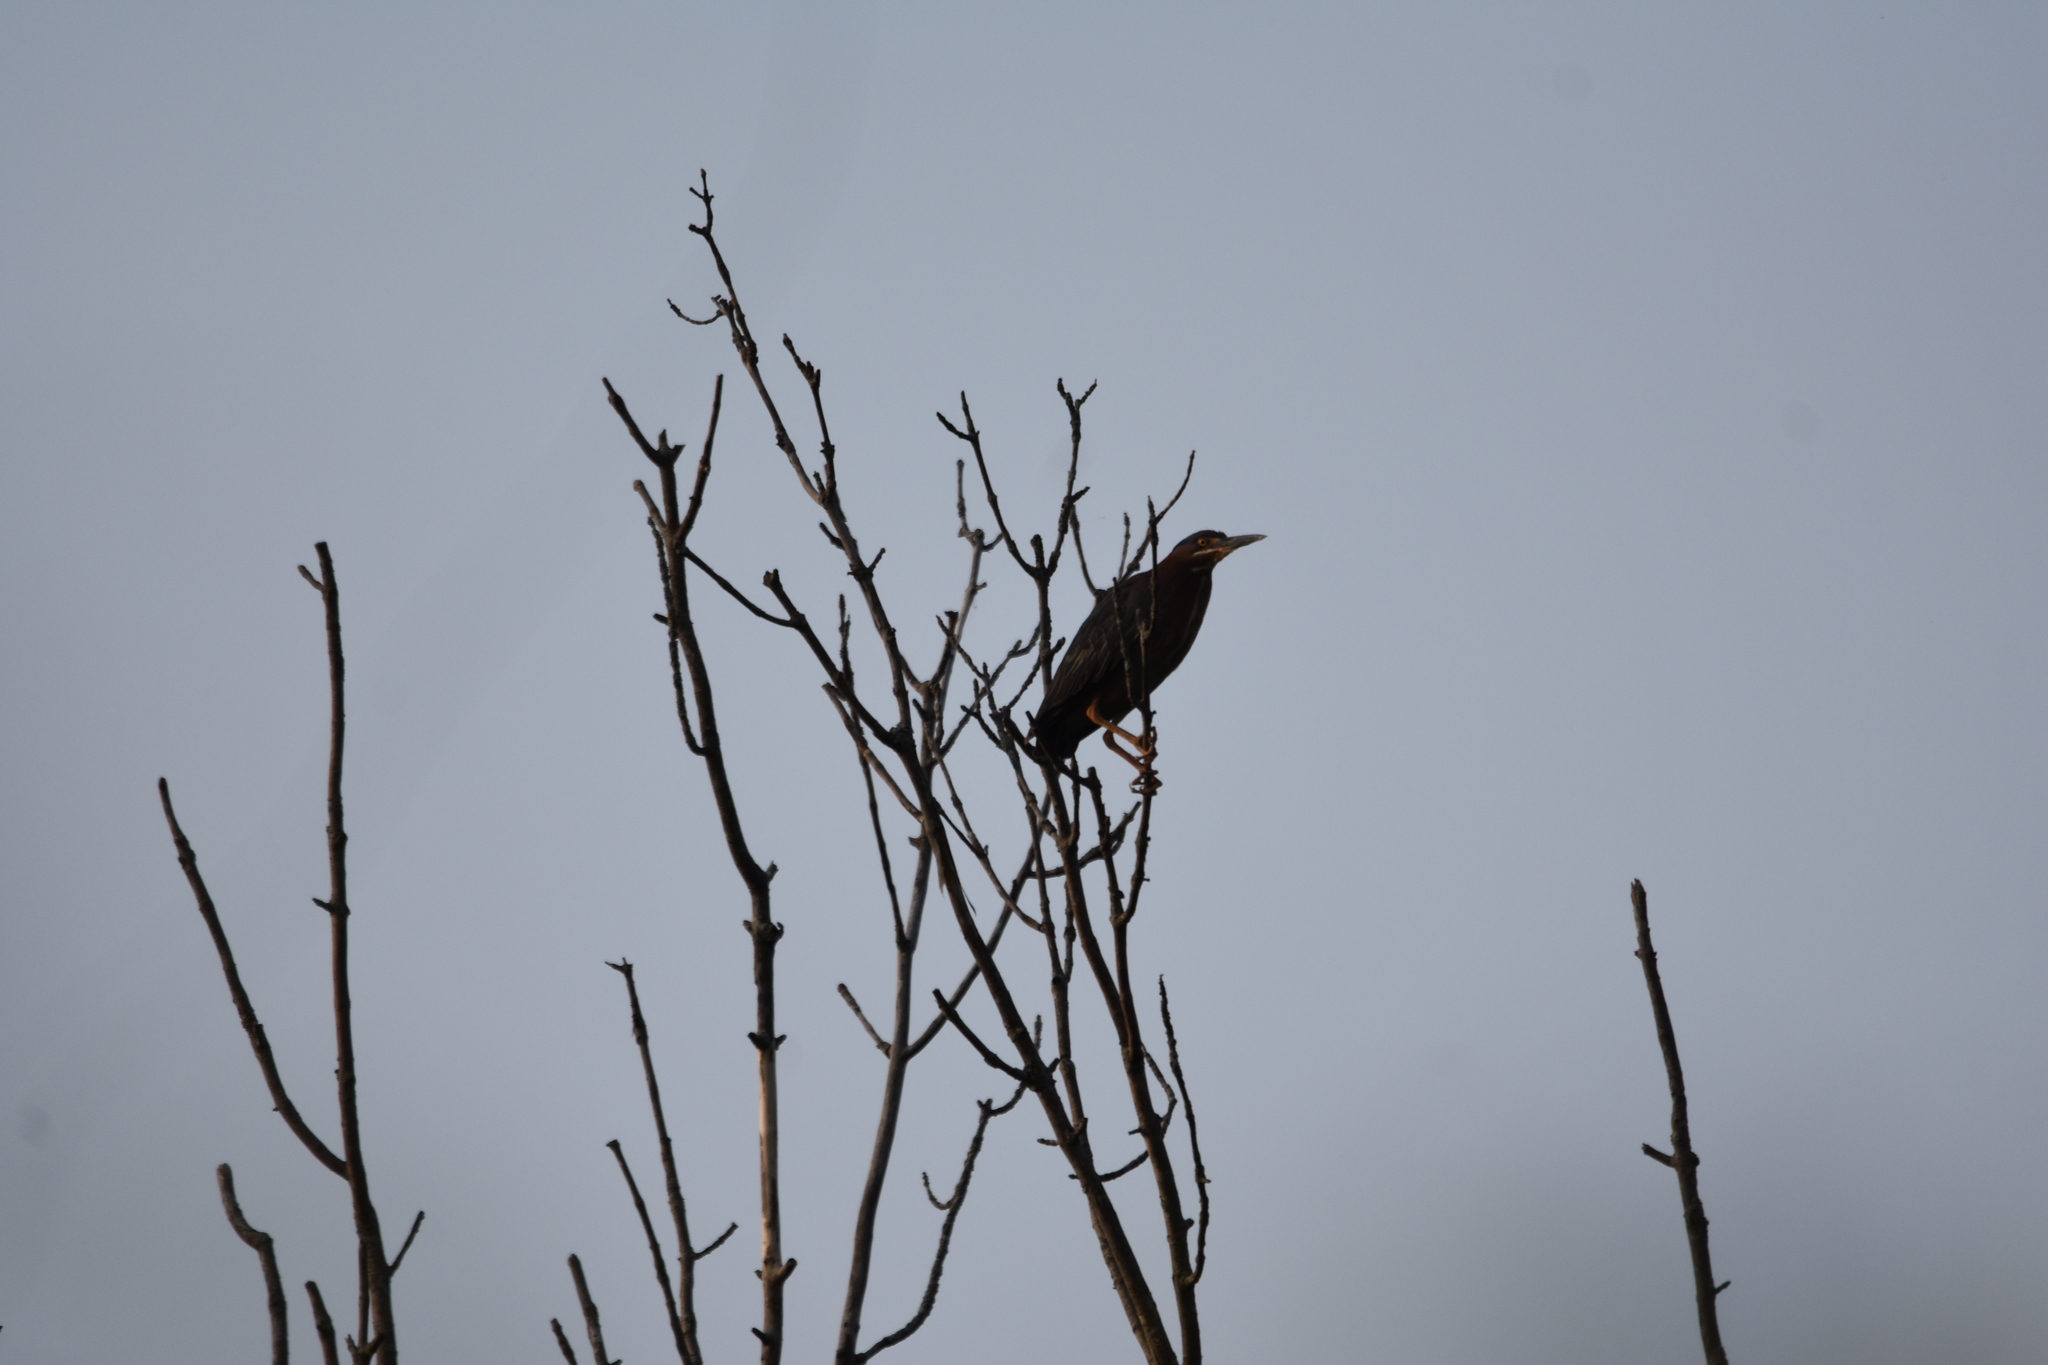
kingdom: Animalia
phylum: Chordata
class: Aves
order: Pelecaniformes
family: Ardeidae
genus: Butorides
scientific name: Butorides virescens
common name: Green heron
